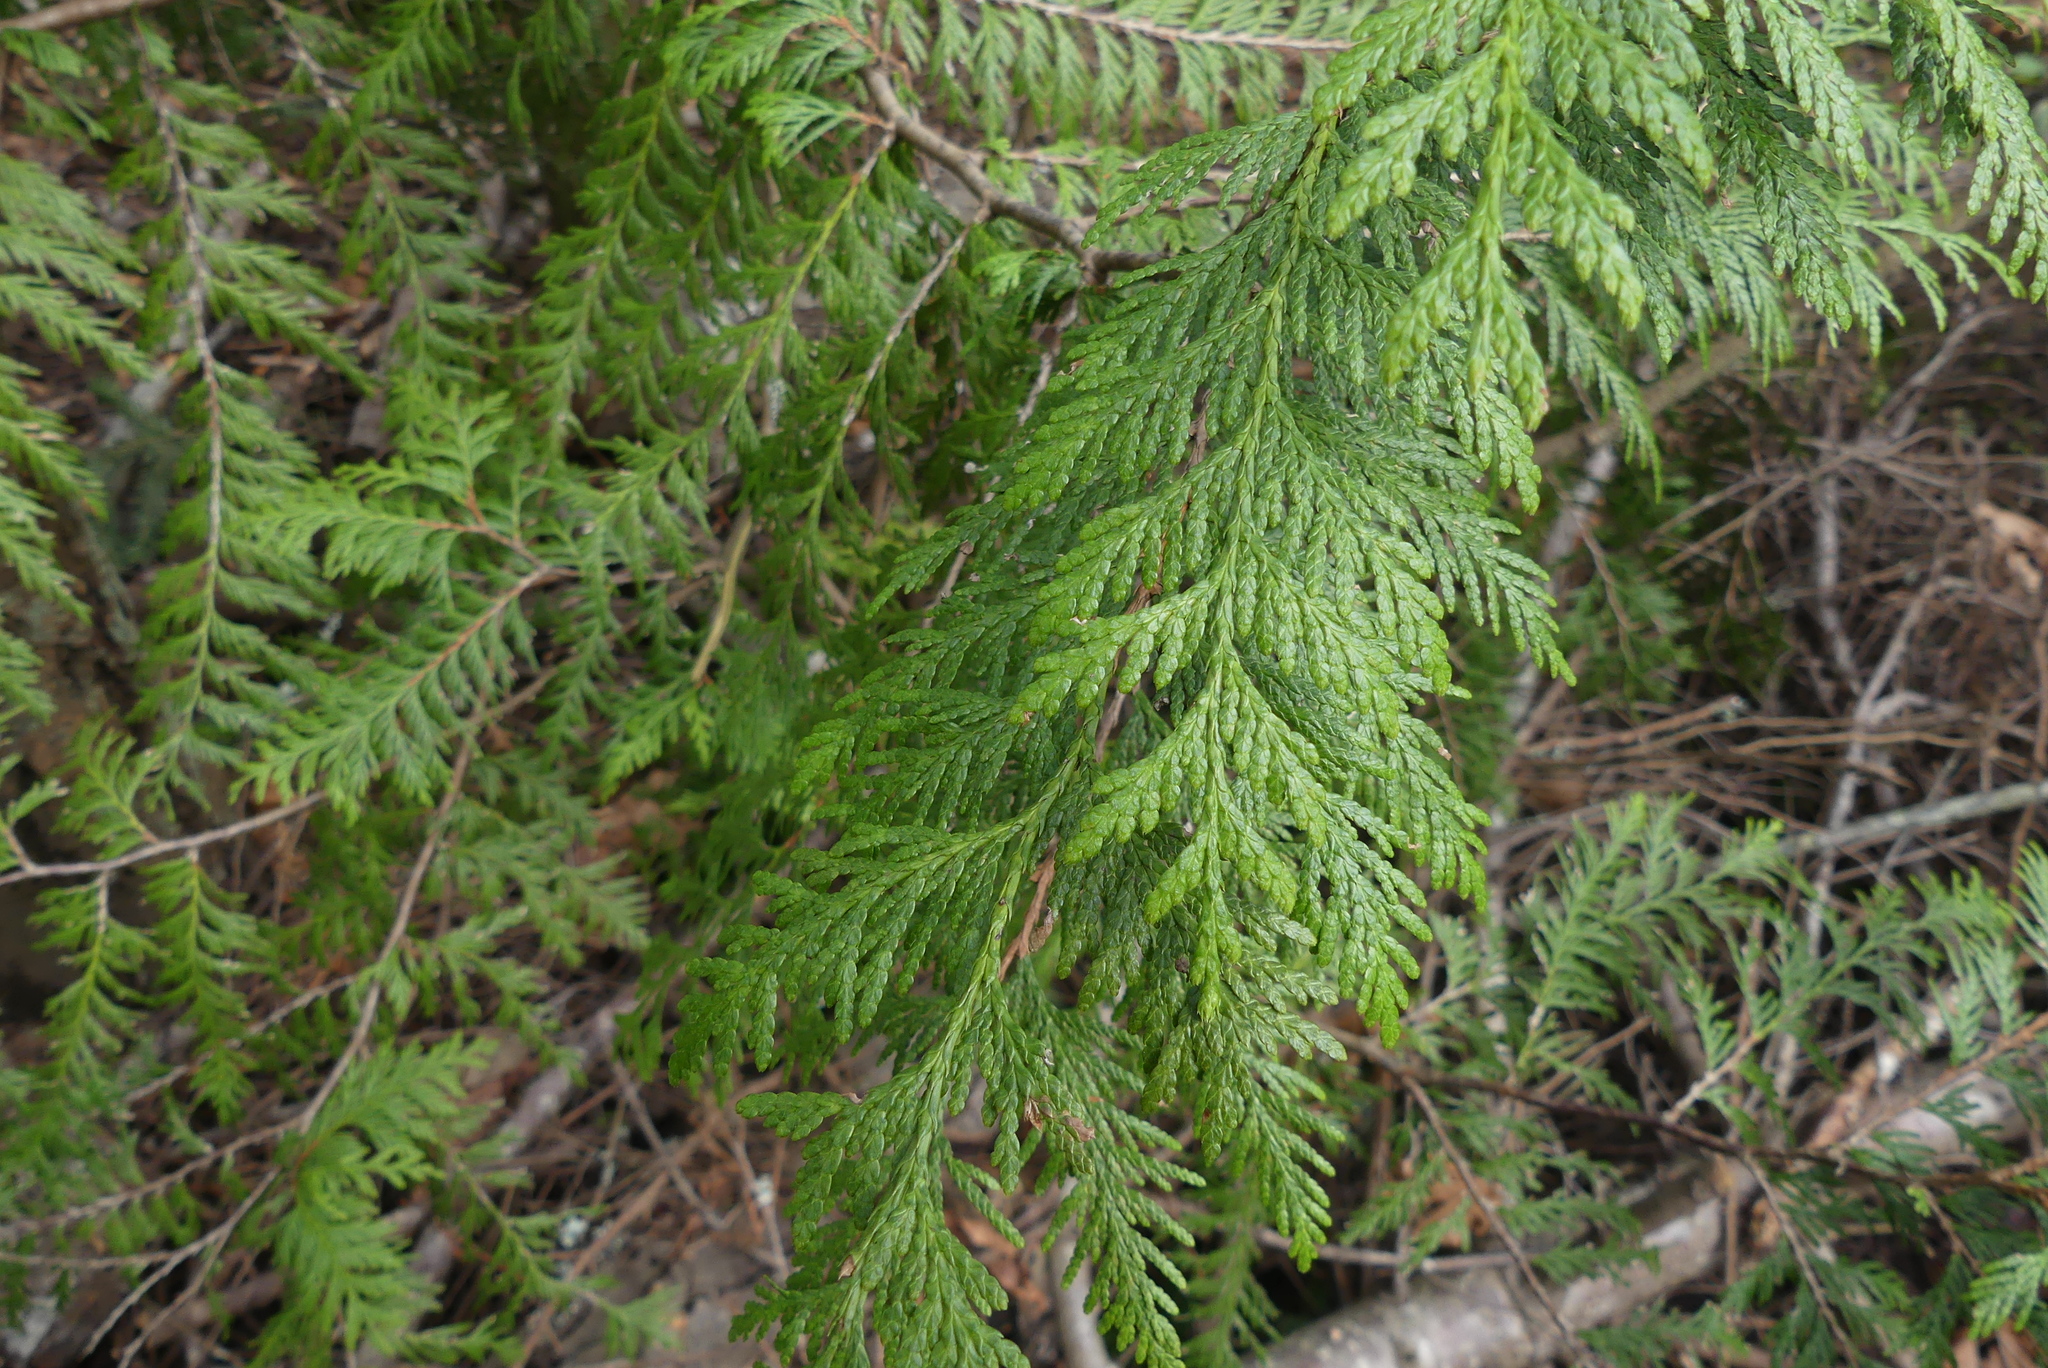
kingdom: Plantae
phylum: Tracheophyta
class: Pinopsida
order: Pinales
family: Cupressaceae
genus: Thuja
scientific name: Thuja plicata
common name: Western red-cedar
